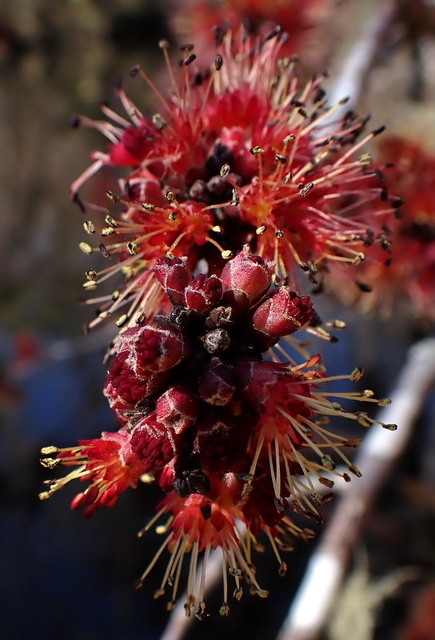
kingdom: Plantae
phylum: Tracheophyta
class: Magnoliopsida
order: Sapindales
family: Sapindaceae
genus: Acer
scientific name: Acer rubrum
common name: Red maple
